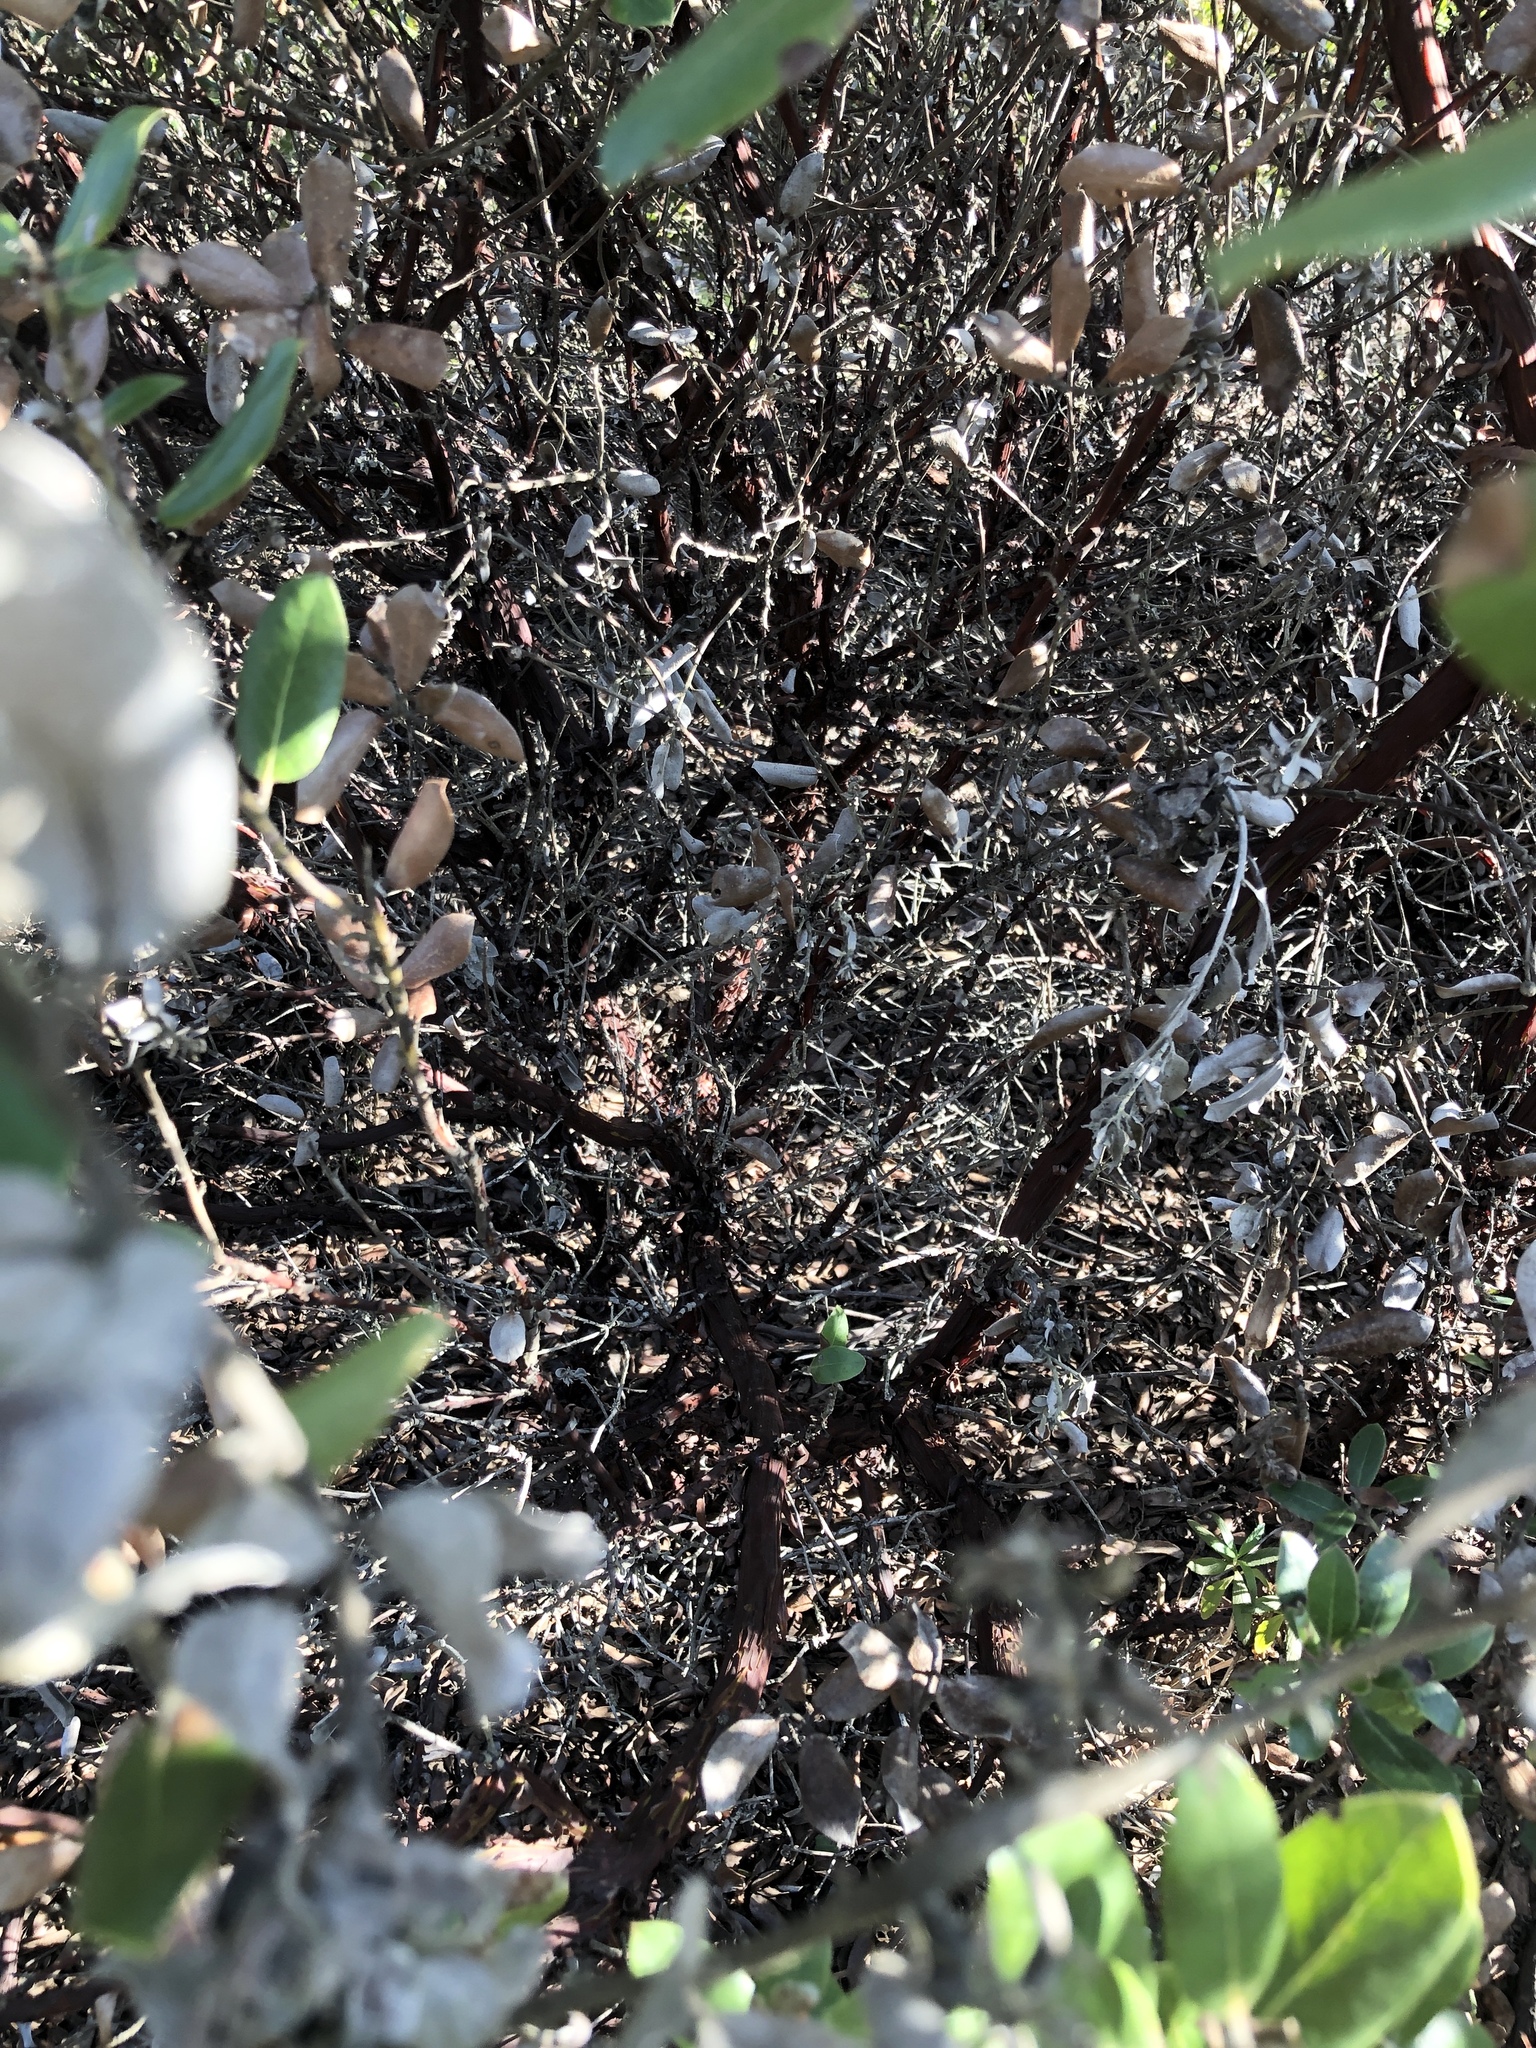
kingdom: Plantae
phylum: Tracheophyta
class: Magnoliopsida
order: Ericales
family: Ericaceae
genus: Arctostaphylos
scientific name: Arctostaphylos tomentosa
